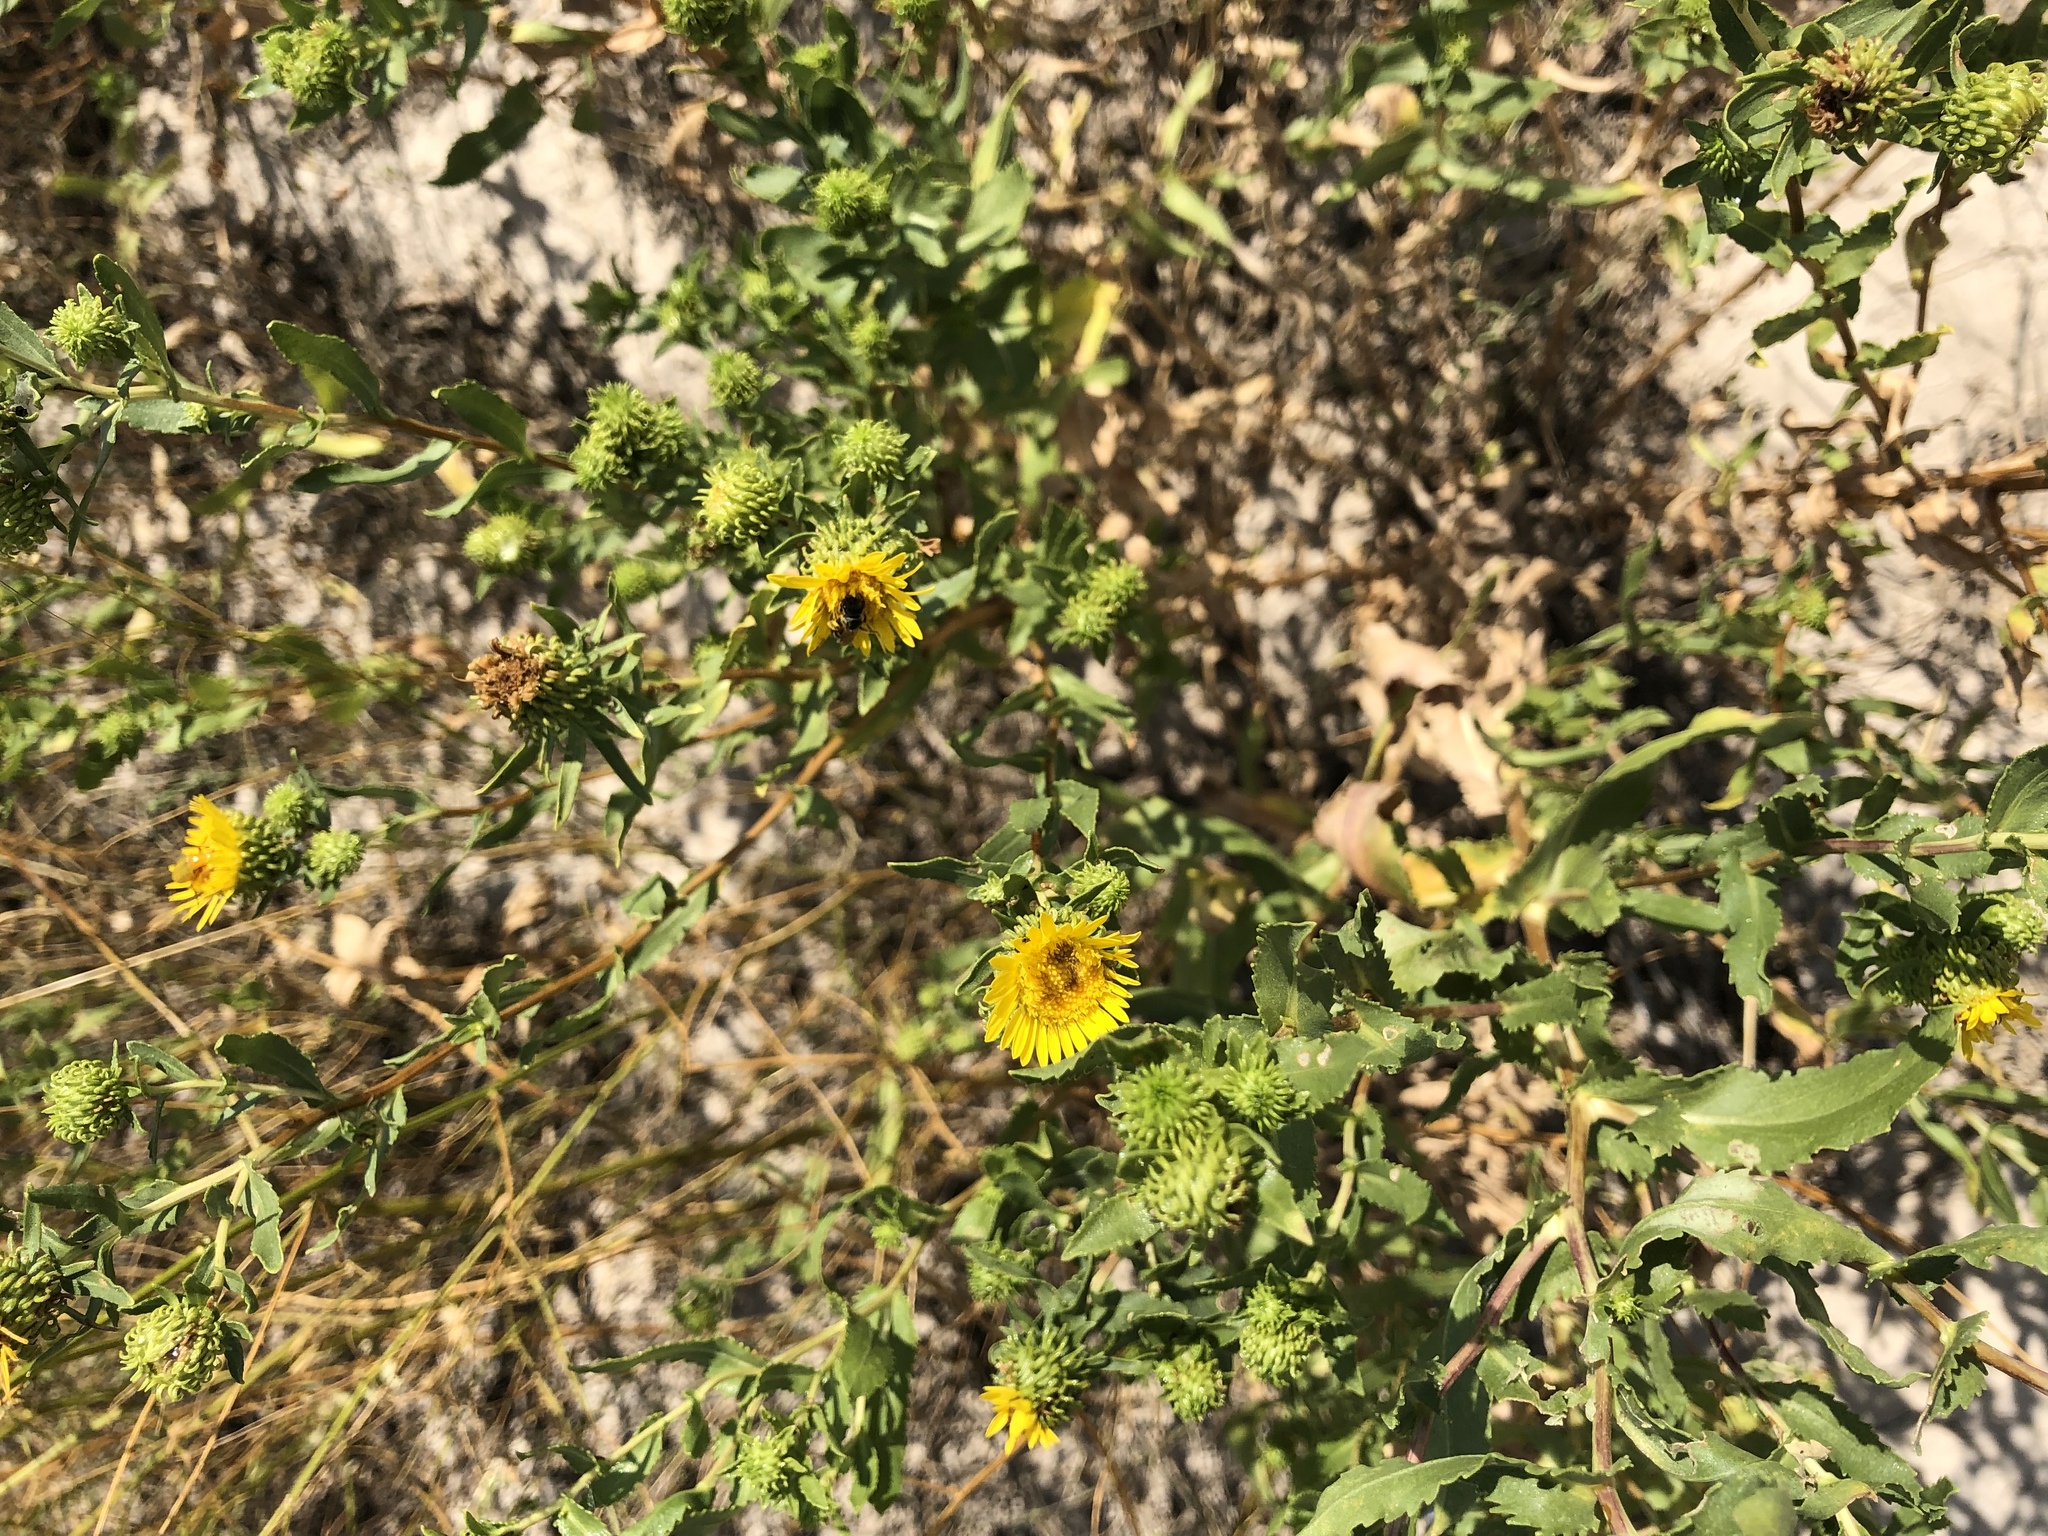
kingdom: Plantae
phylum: Tracheophyta
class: Magnoliopsida
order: Asterales
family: Asteraceae
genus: Grindelia
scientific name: Grindelia squarrosa
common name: Curly-cup gumweed
